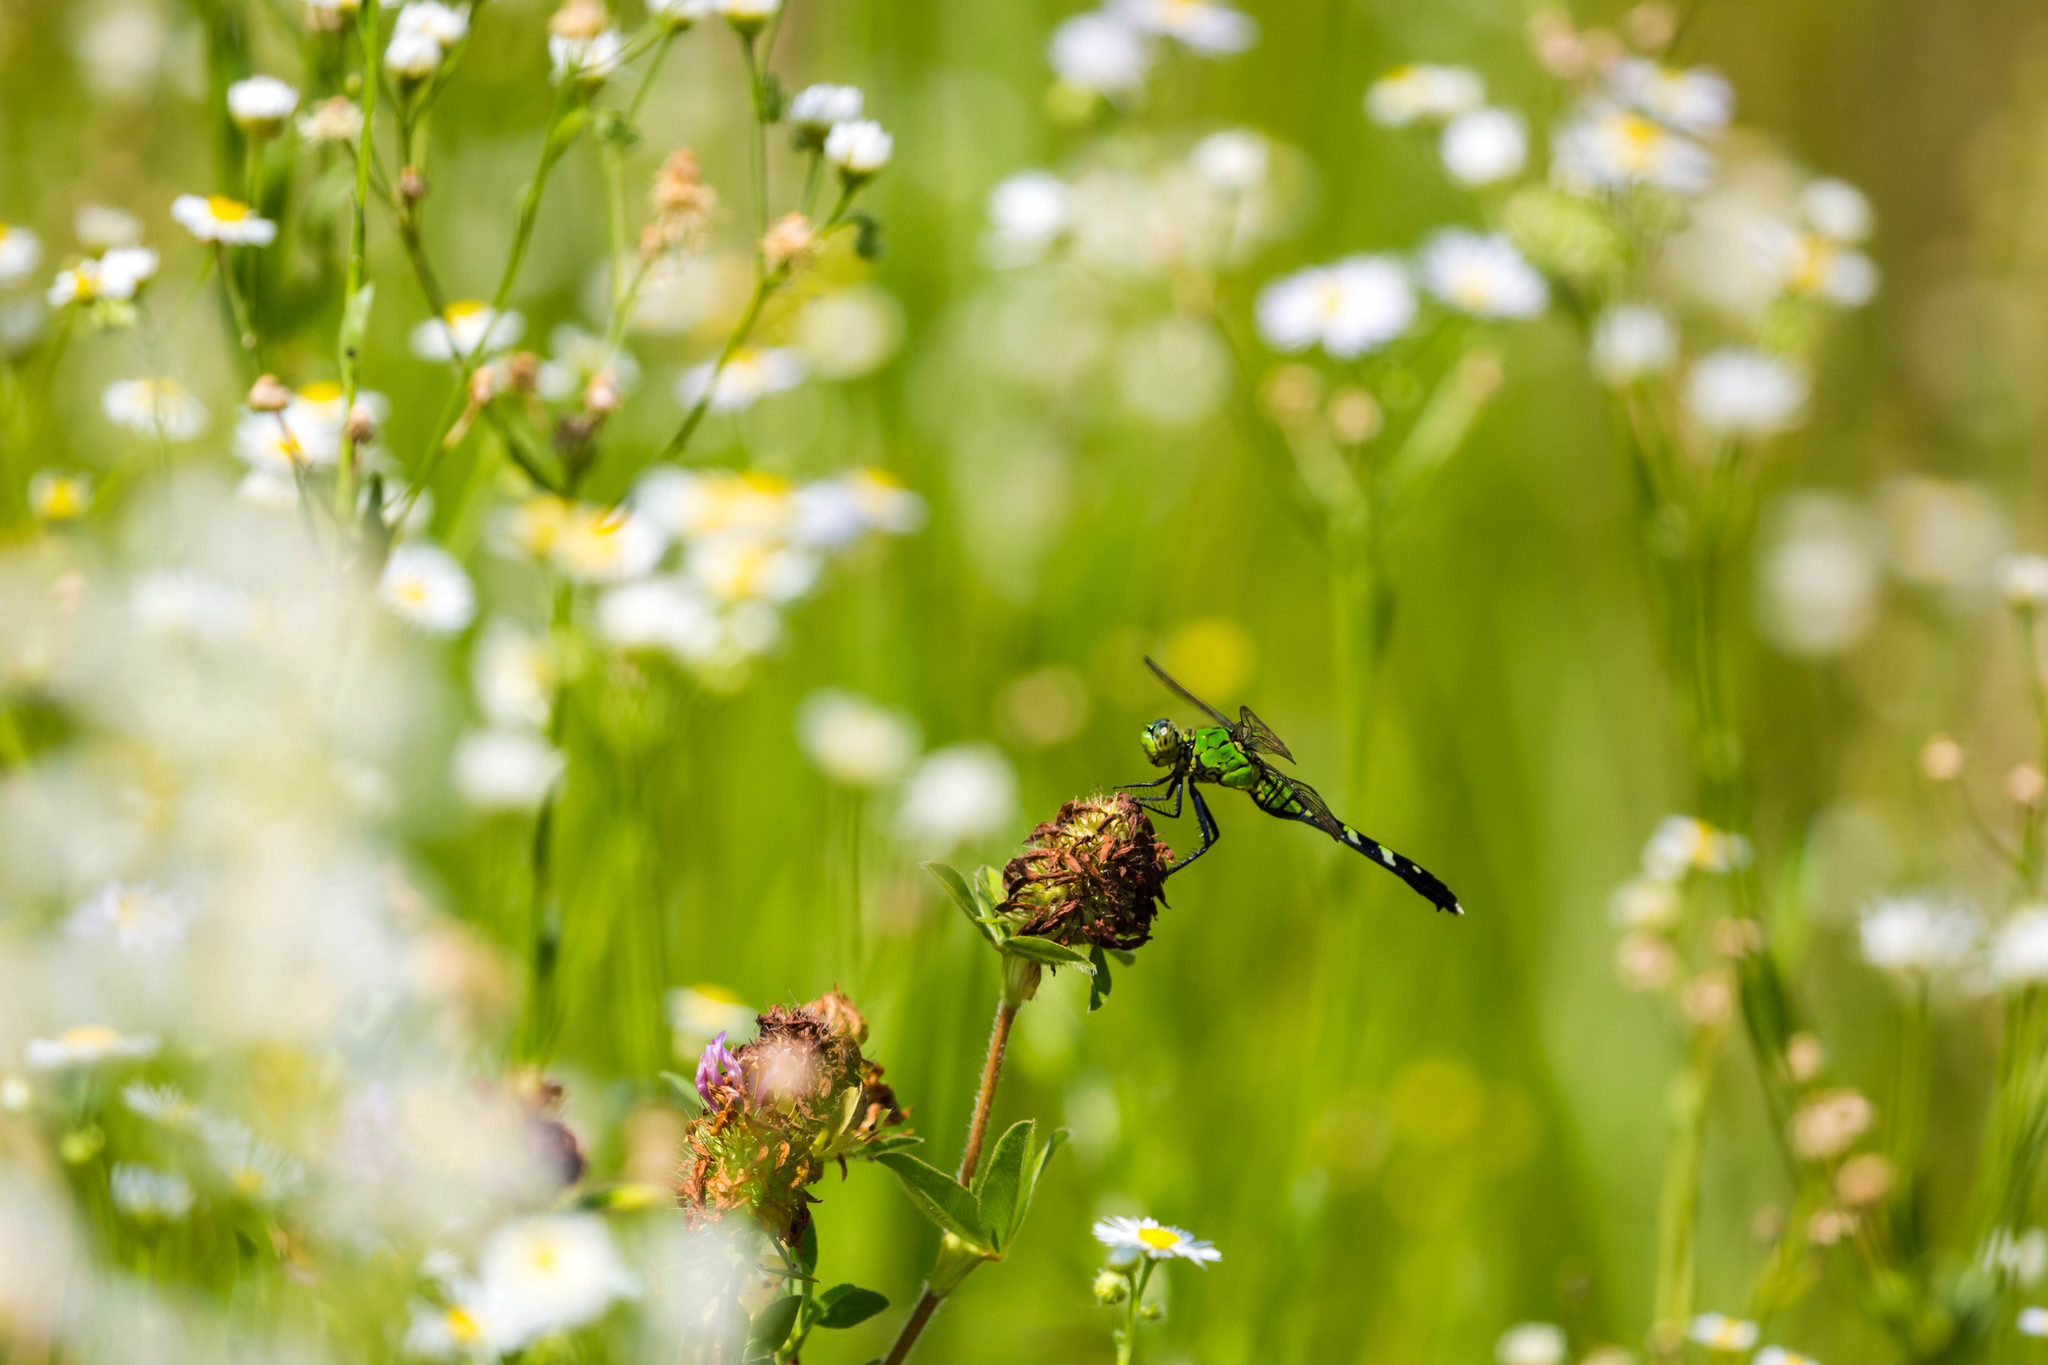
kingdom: Animalia
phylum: Arthropoda
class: Insecta
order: Odonata
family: Libellulidae
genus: Erythemis
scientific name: Erythemis simplicicollis
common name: Eastern pondhawk
